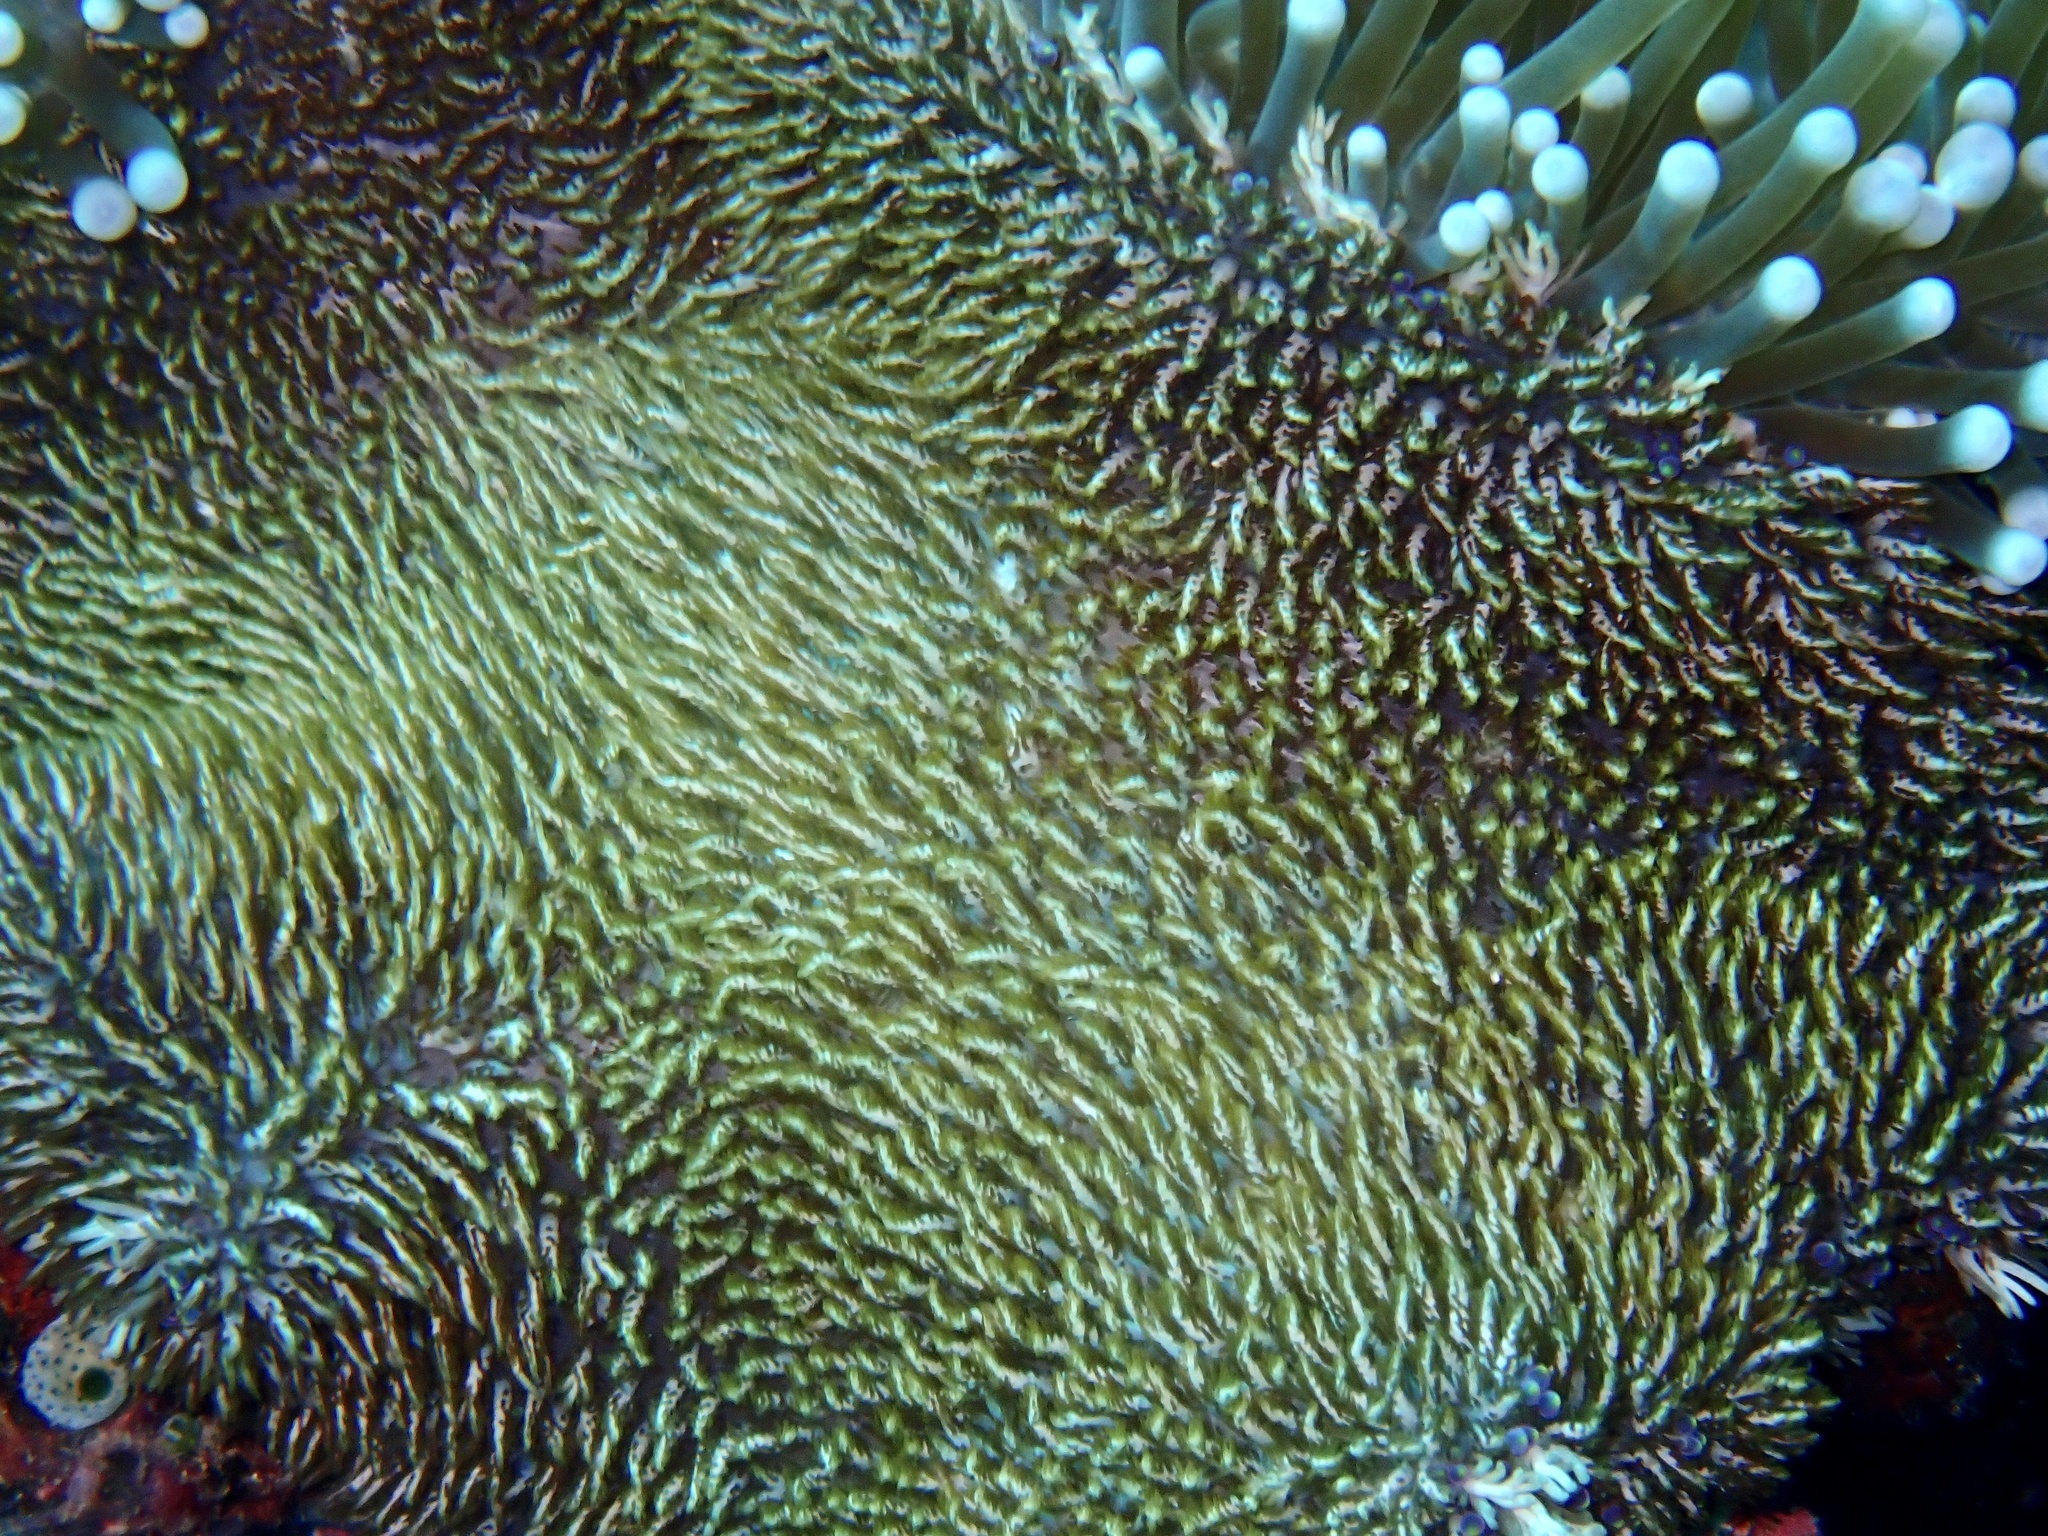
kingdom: Animalia
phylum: Cnidaria
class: Anthozoa
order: Actiniaria
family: Thalassianthidae
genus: Heterodactyla
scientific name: Heterodactyla hemprichii
